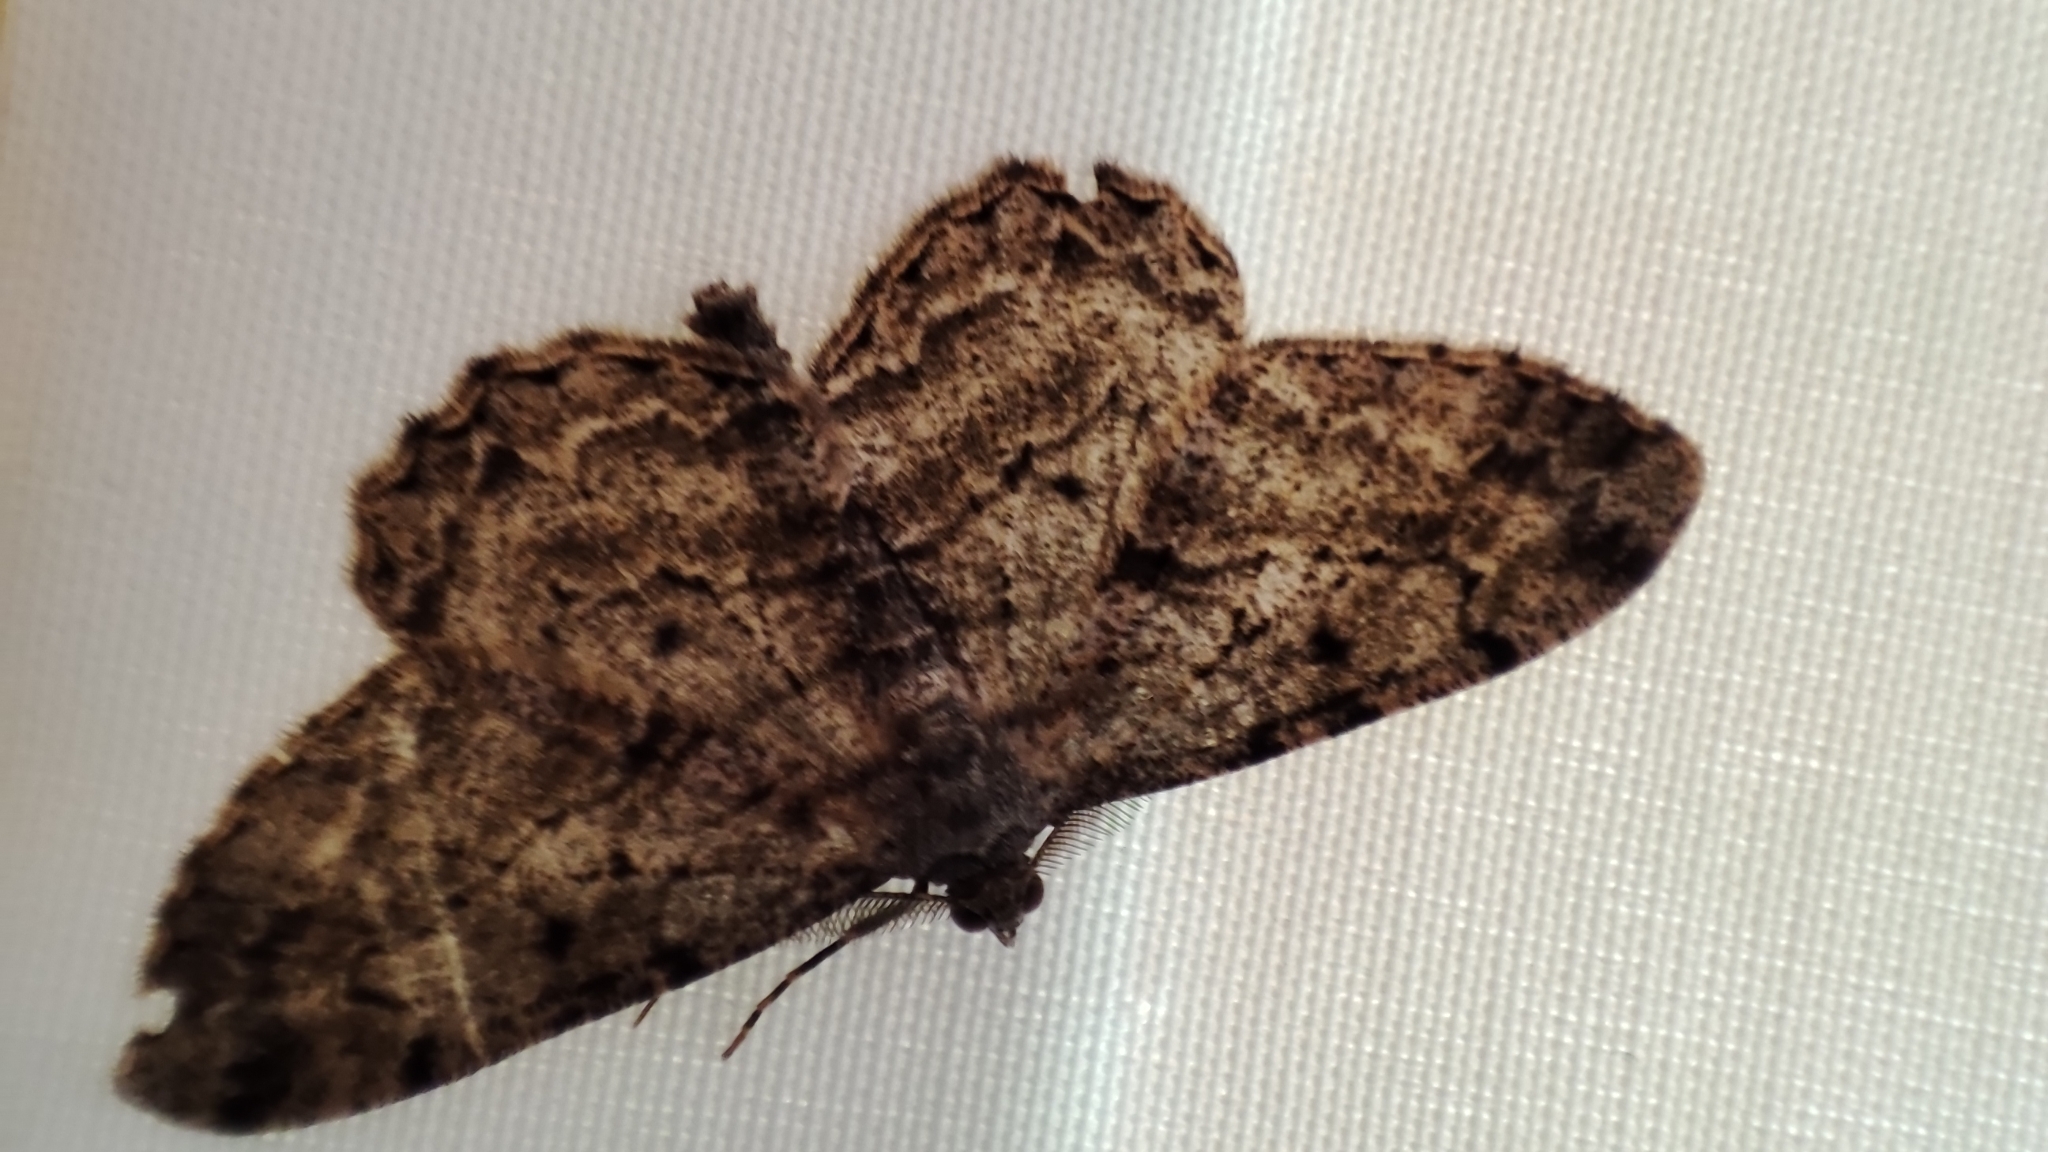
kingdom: Animalia
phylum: Arthropoda
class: Insecta
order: Lepidoptera
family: Geometridae
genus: Peribatodes
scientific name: Peribatodes rhomboidaria
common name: Willow beauty
